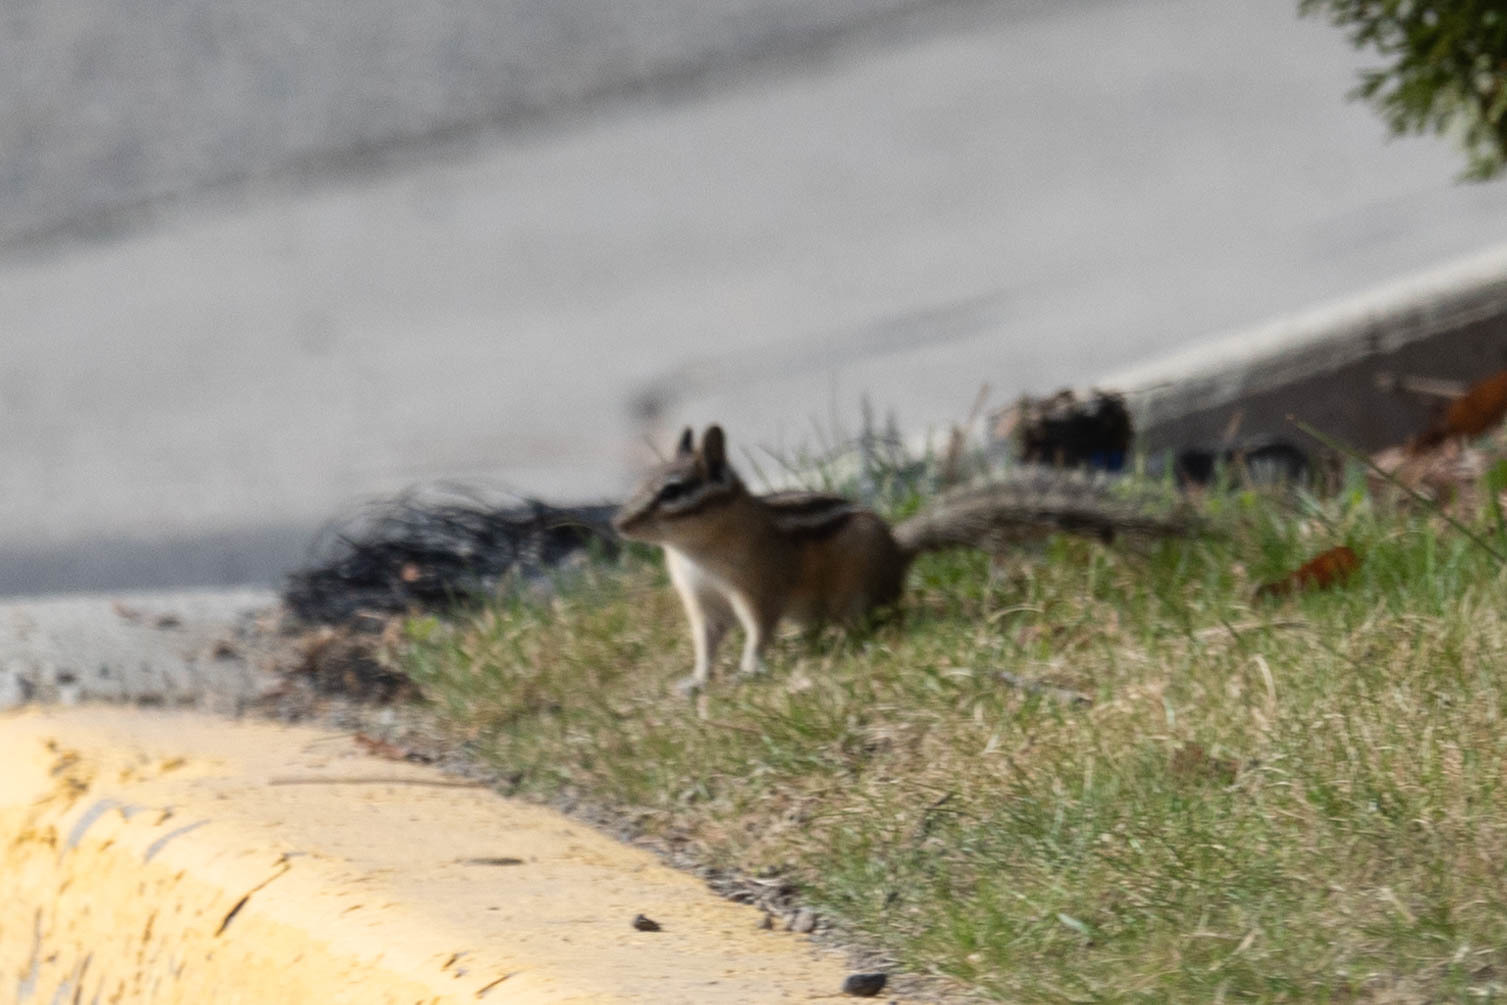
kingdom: Animalia
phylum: Chordata
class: Mammalia
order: Rodentia
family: Sciuridae
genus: Tamias
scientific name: Tamias amoenus
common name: Yellow-pine chipmunk
